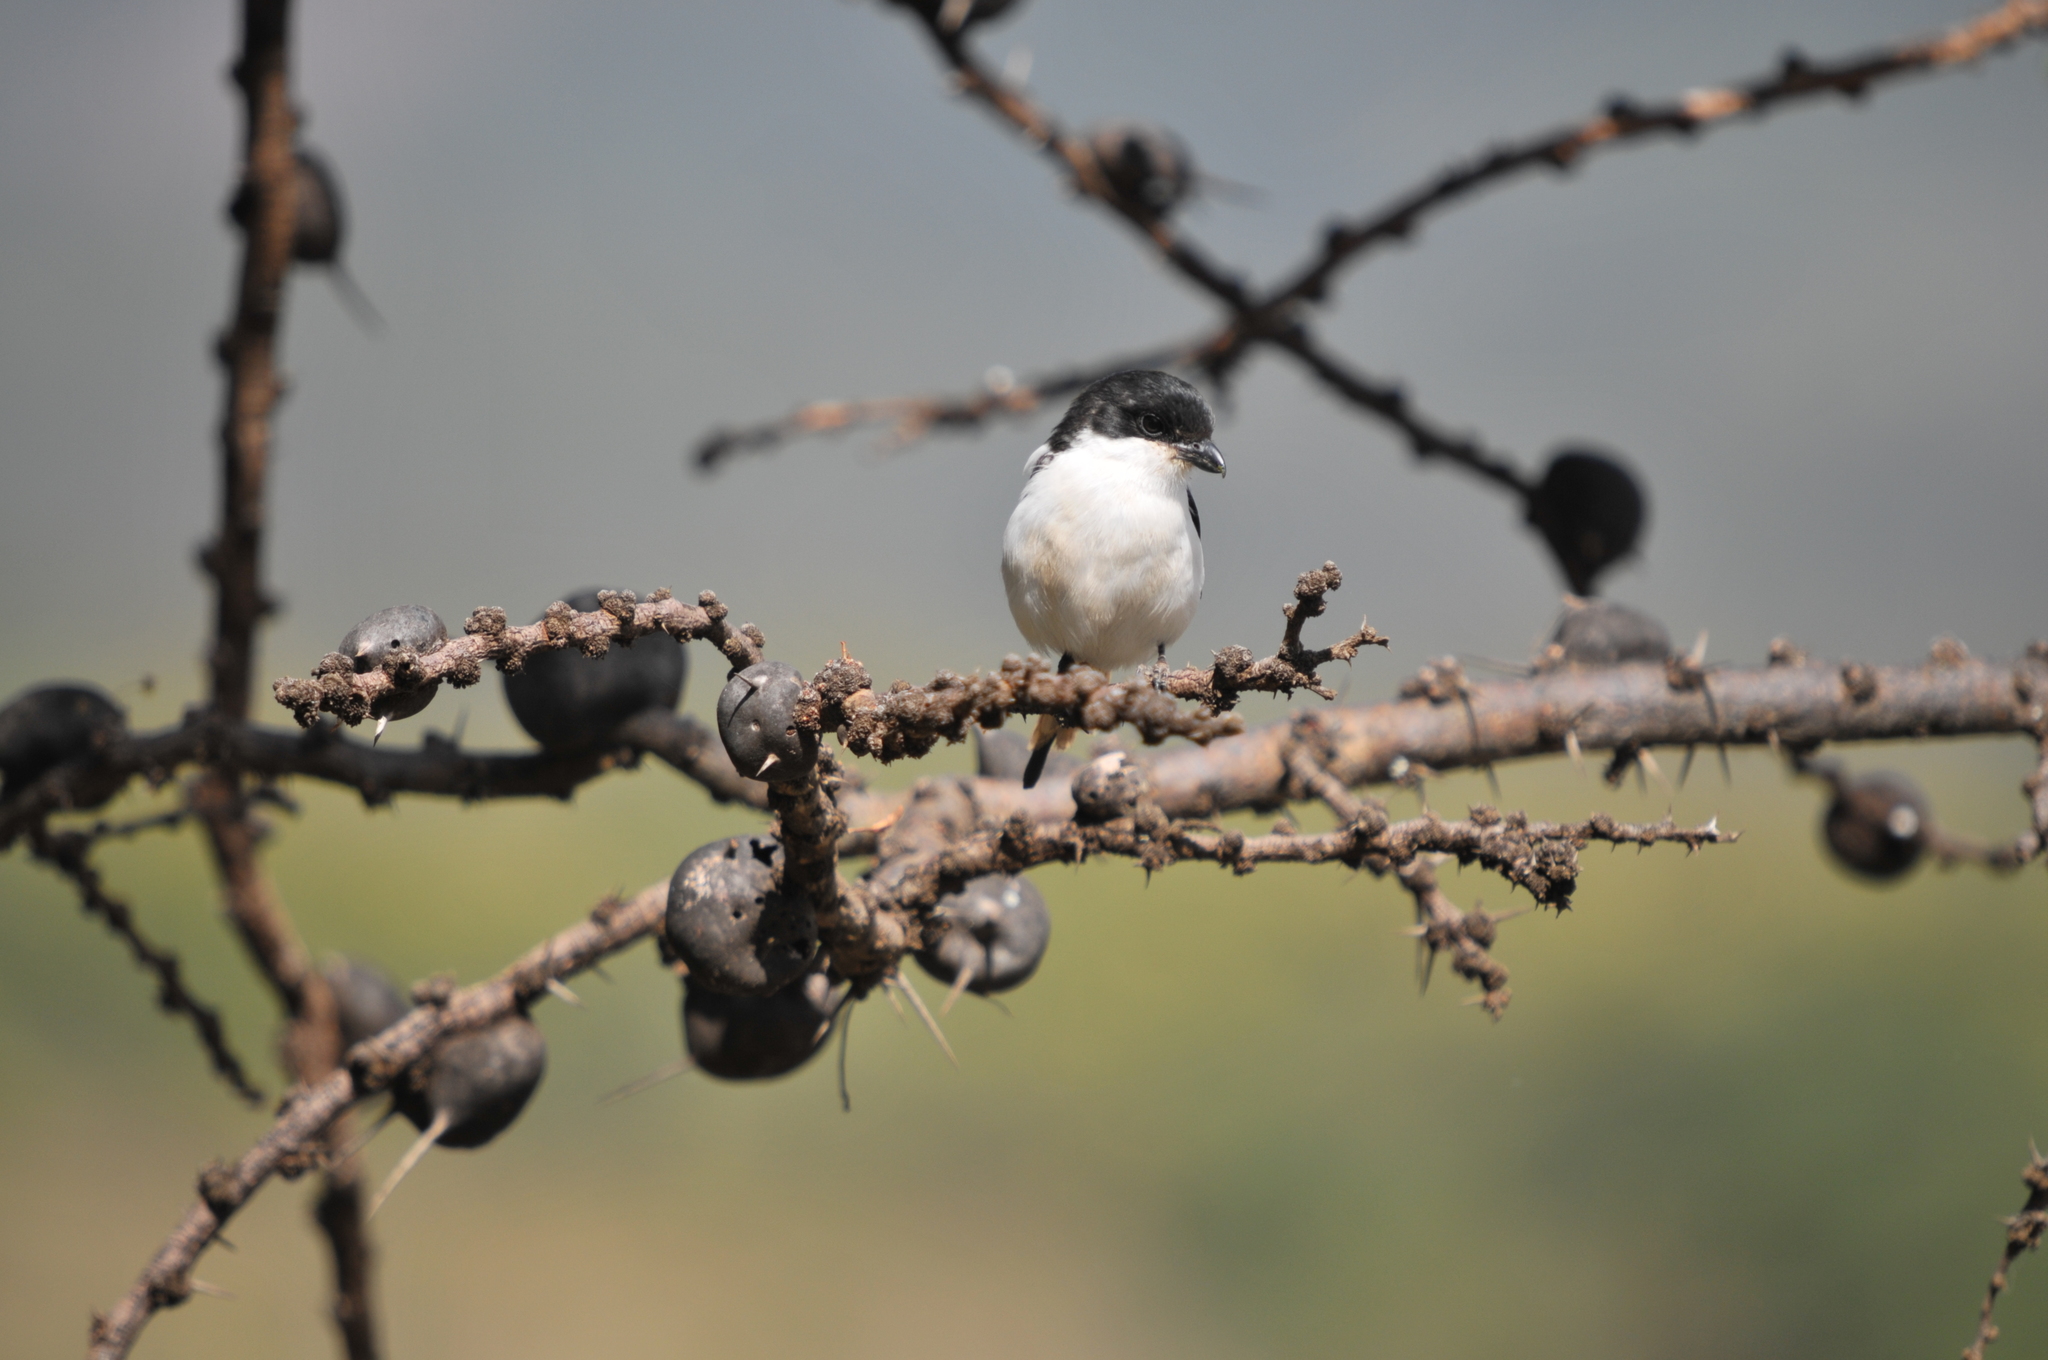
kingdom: Animalia
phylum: Chordata
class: Aves
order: Passeriformes
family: Laniidae
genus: Lanius
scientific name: Lanius humeralis
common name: Northern fiscal
